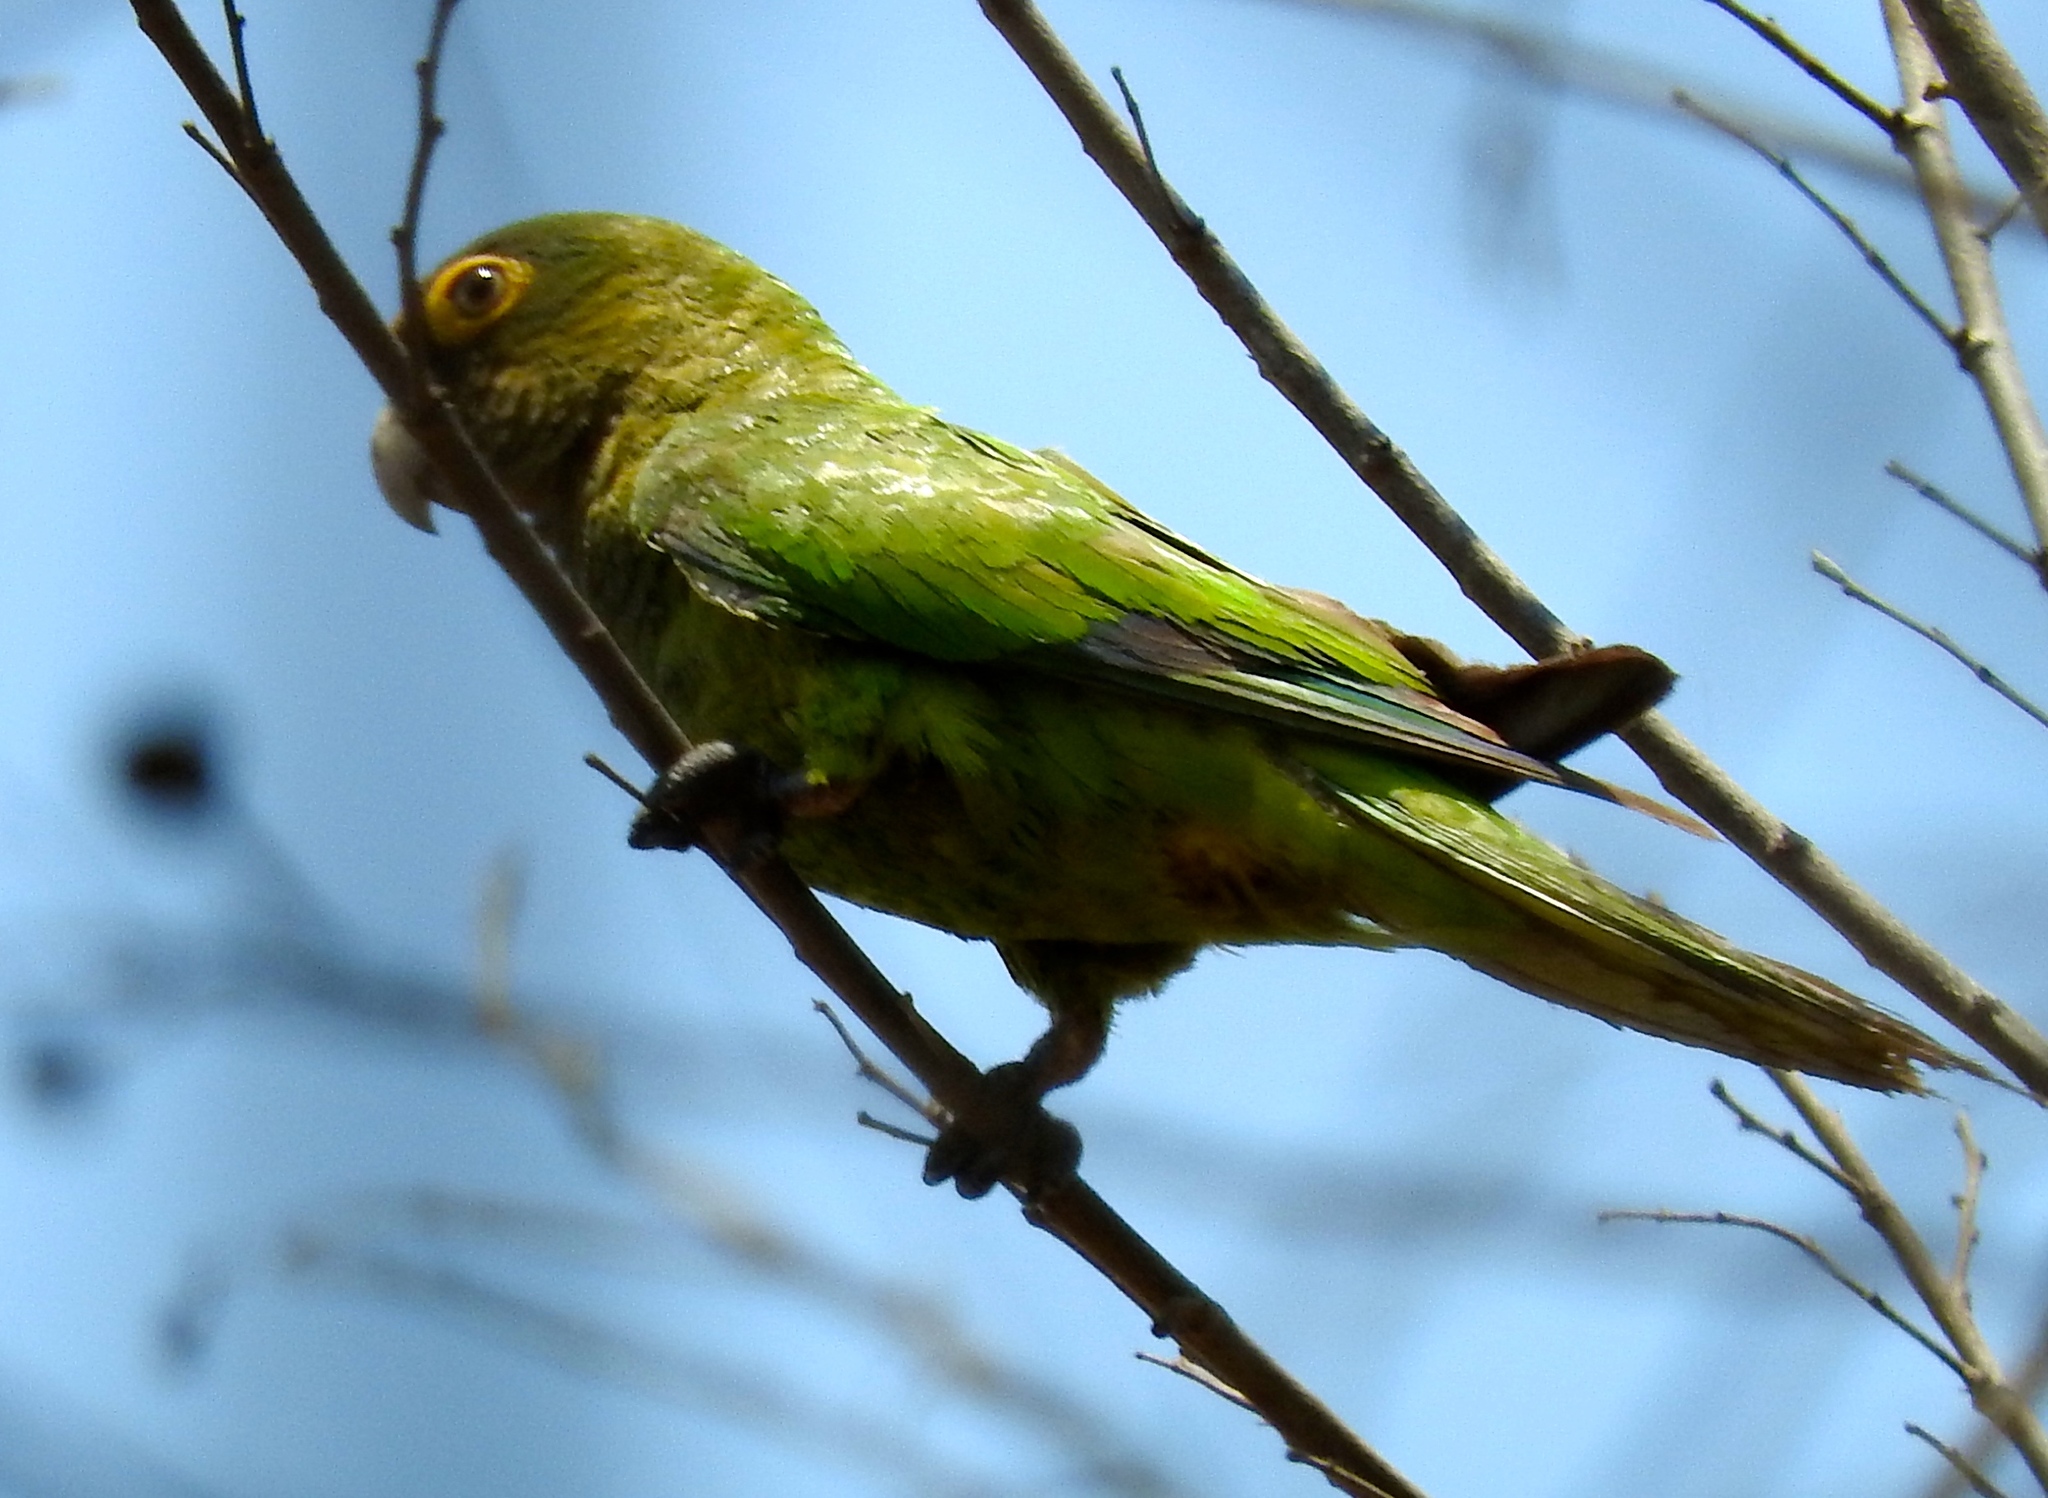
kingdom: Animalia
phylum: Chordata
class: Aves
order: Psittaciformes
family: Psittacidae
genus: Aratinga
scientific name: Aratinga canicularis
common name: Orange-fronted parakeet
